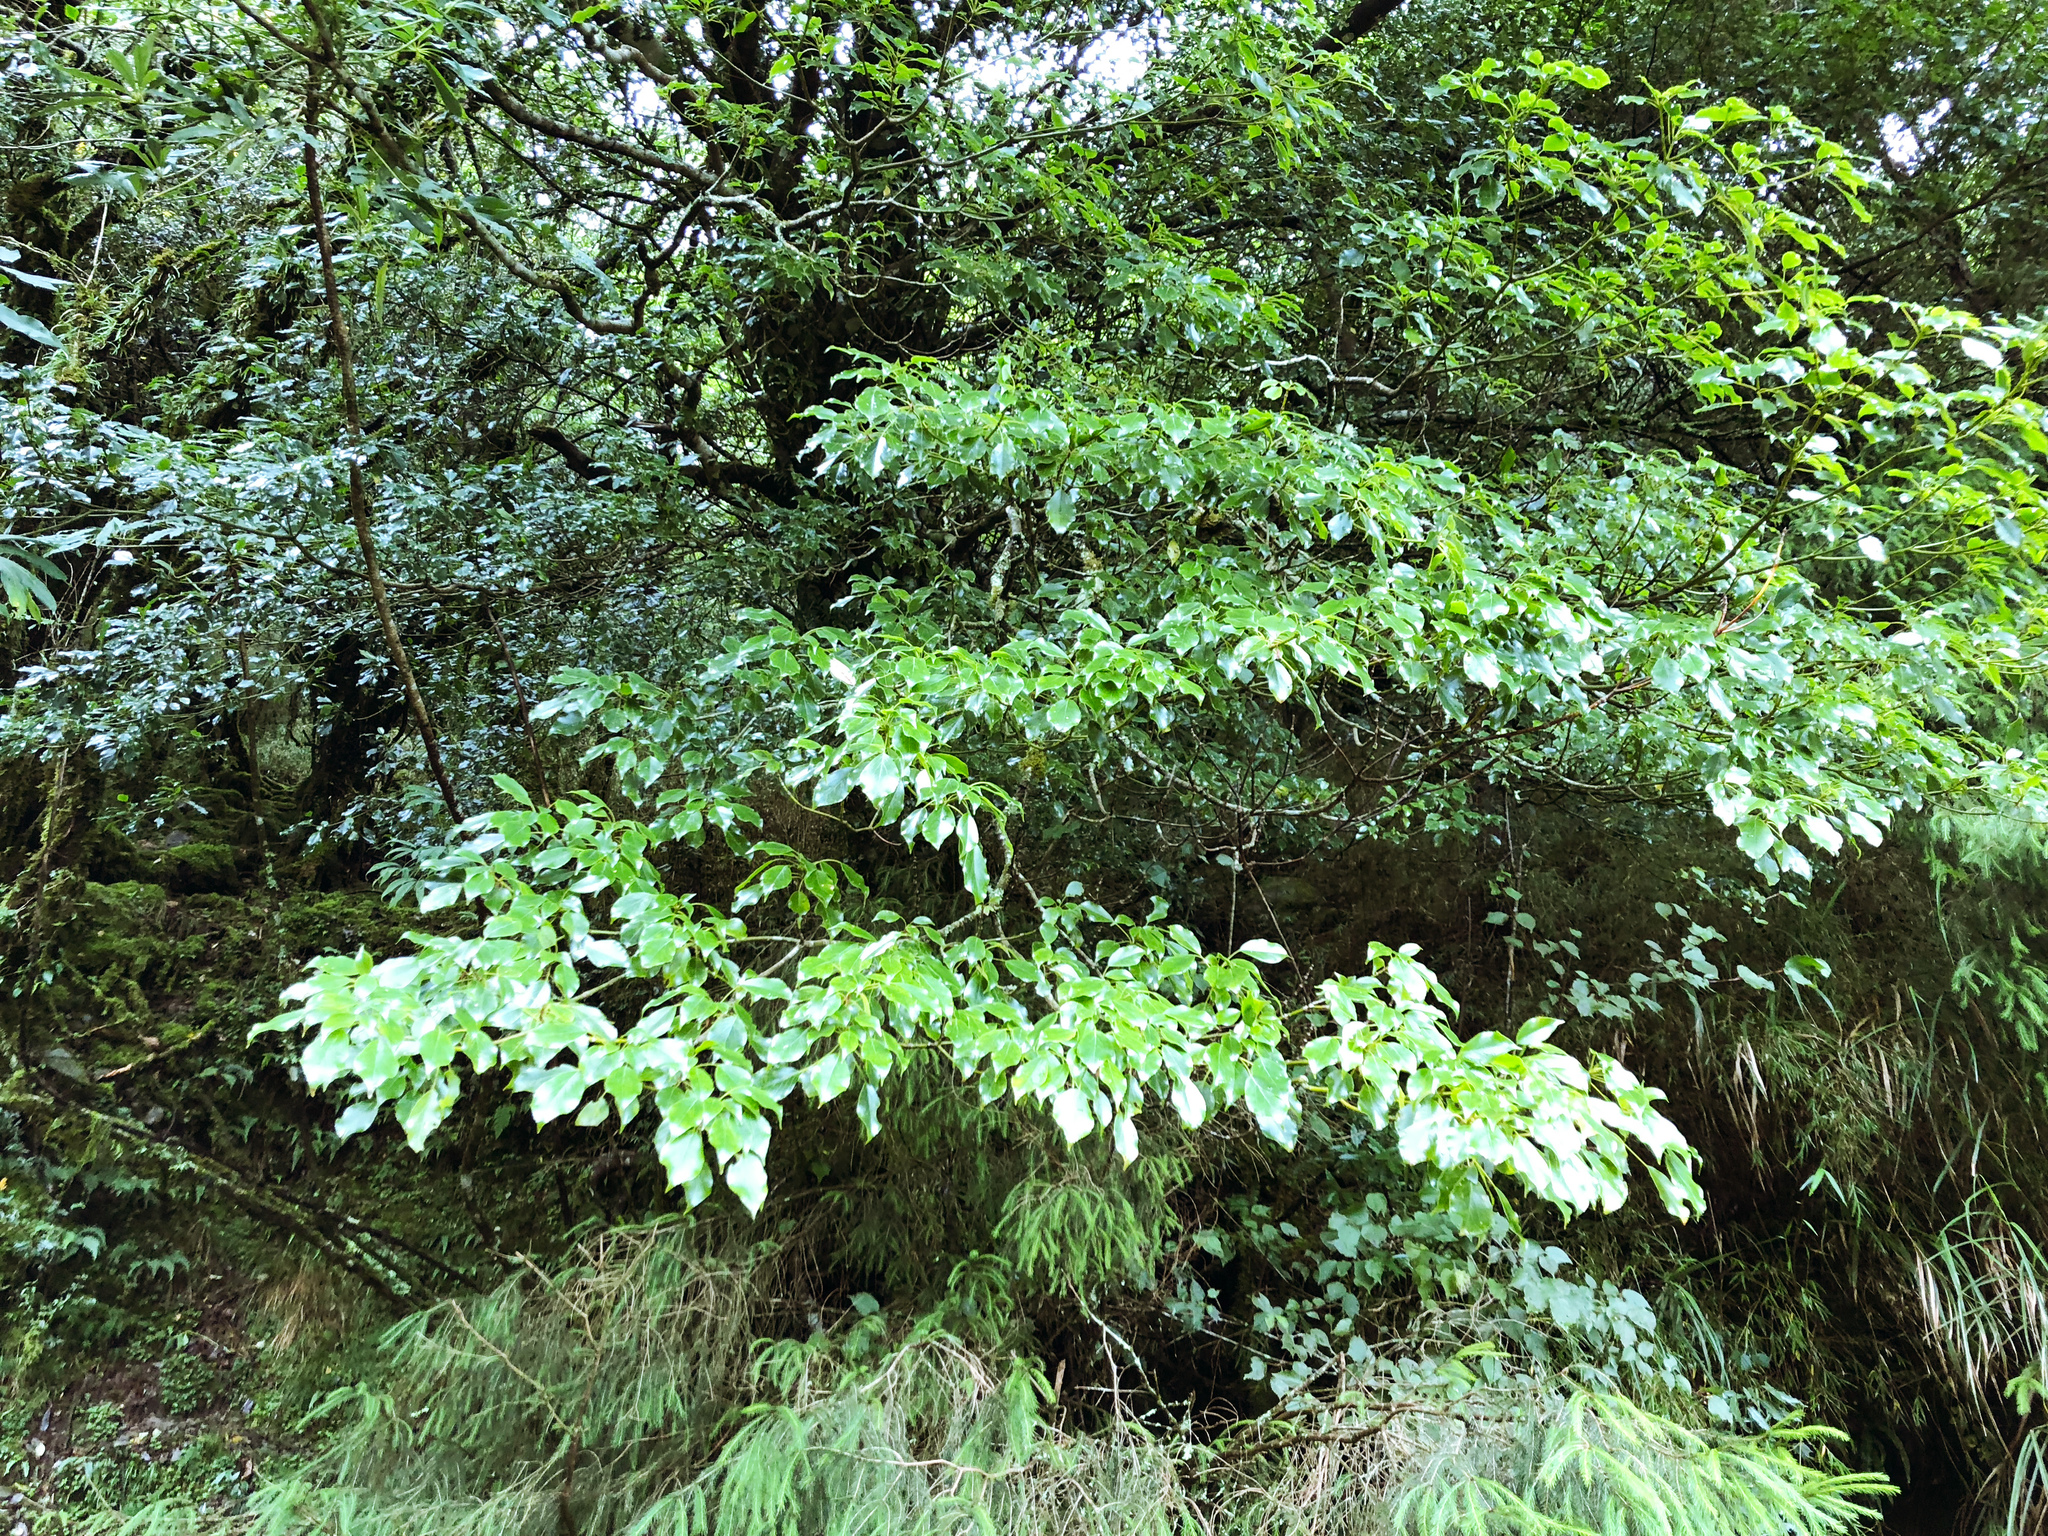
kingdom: Plantae
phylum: Tracheophyta
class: Magnoliopsida
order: Trochodendrales
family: Trochodendraceae
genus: Trochodendron
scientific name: Trochodendron aralioides
